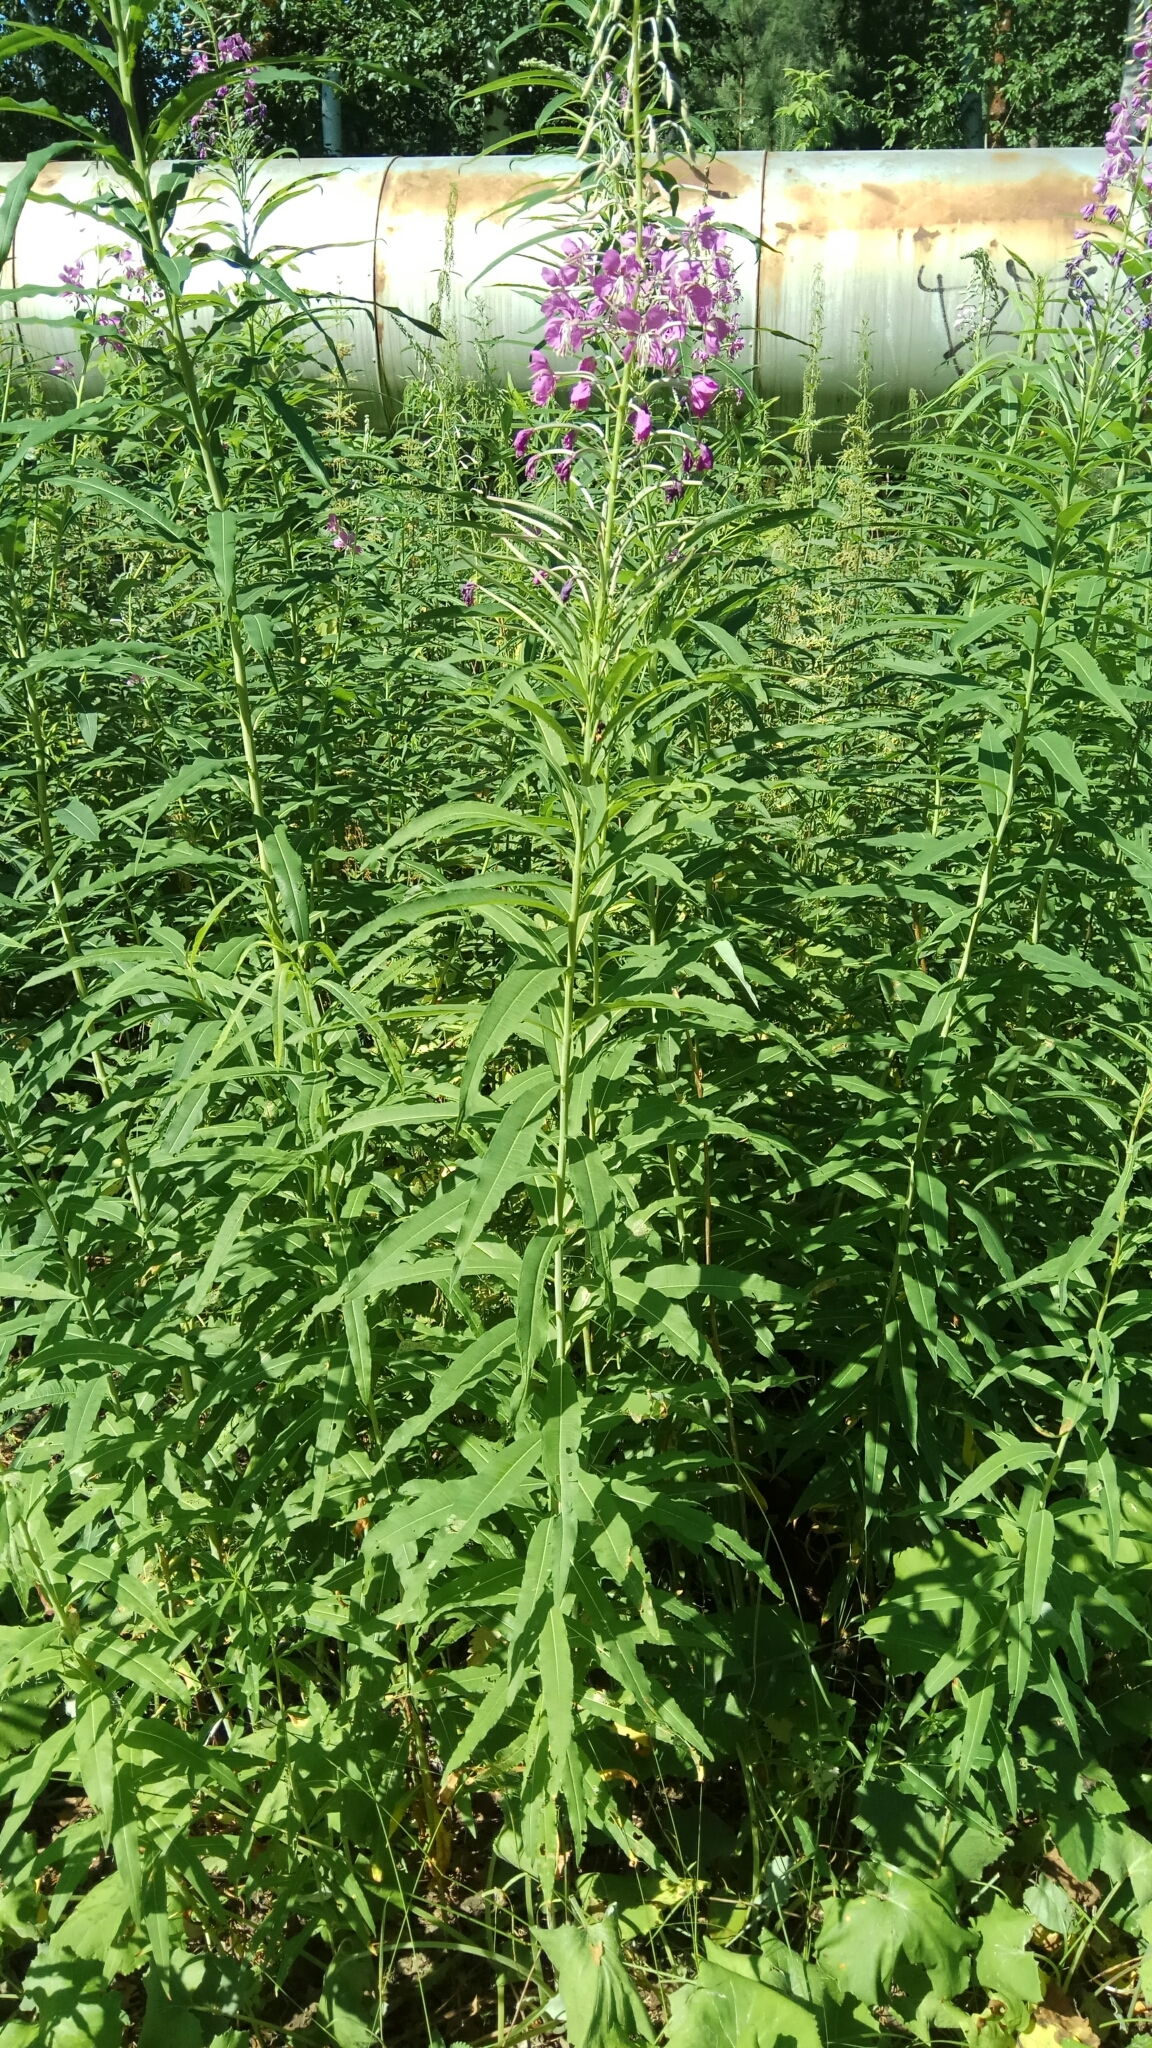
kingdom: Plantae
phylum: Tracheophyta
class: Magnoliopsida
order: Myrtales
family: Onagraceae
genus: Chamaenerion
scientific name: Chamaenerion angustifolium
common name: Fireweed
